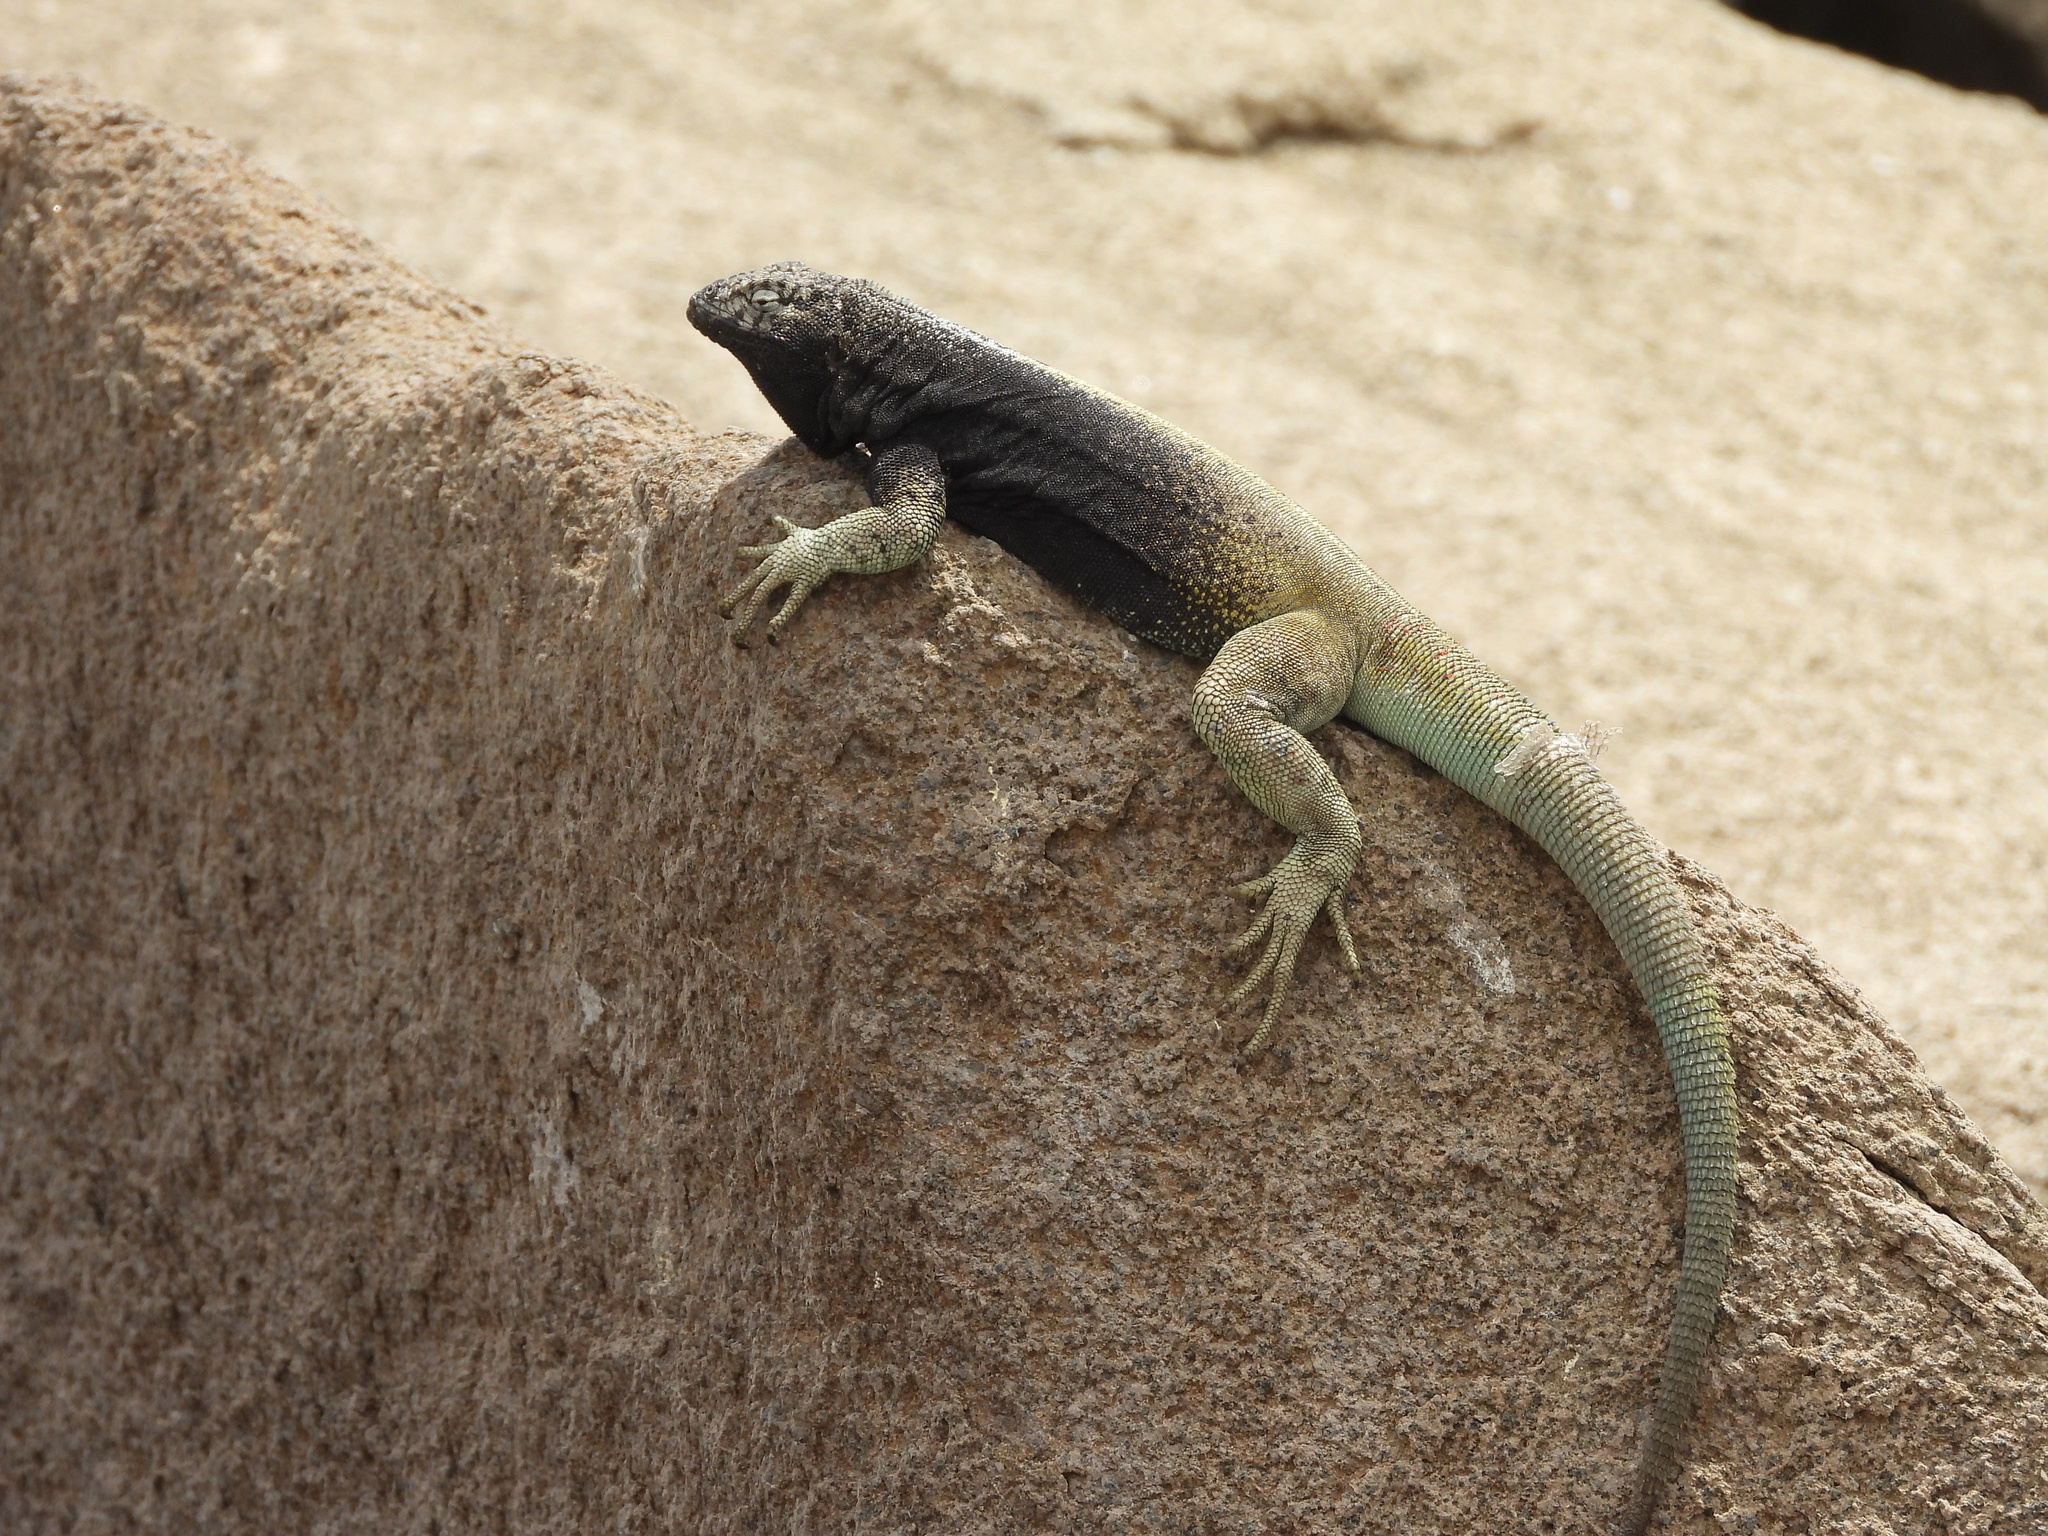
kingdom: Animalia
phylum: Chordata
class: Squamata
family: Tropiduridae
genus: Microlophus
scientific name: Microlophus quadrivittatus
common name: Four-banded pacific iguana
